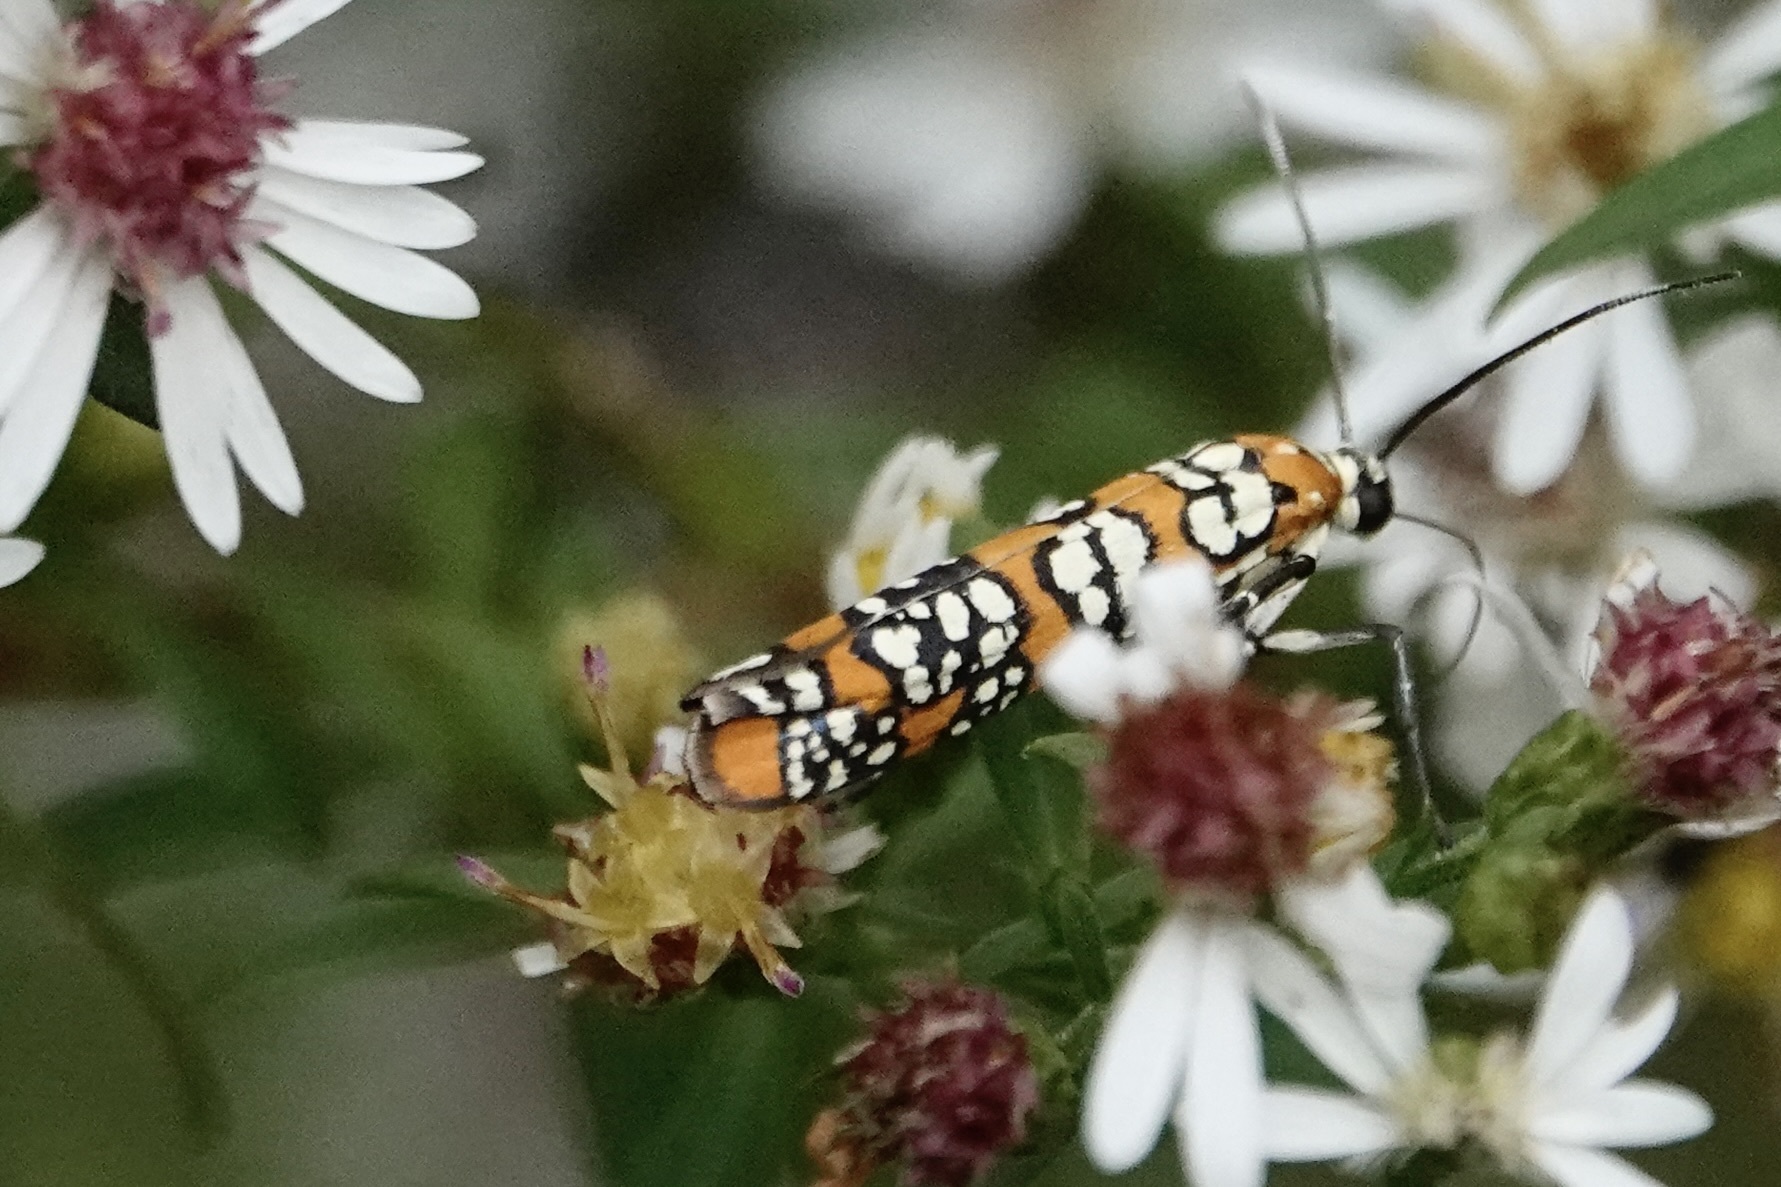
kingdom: Animalia
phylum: Arthropoda
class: Insecta
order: Lepidoptera
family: Attevidae
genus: Atteva
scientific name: Atteva punctella
